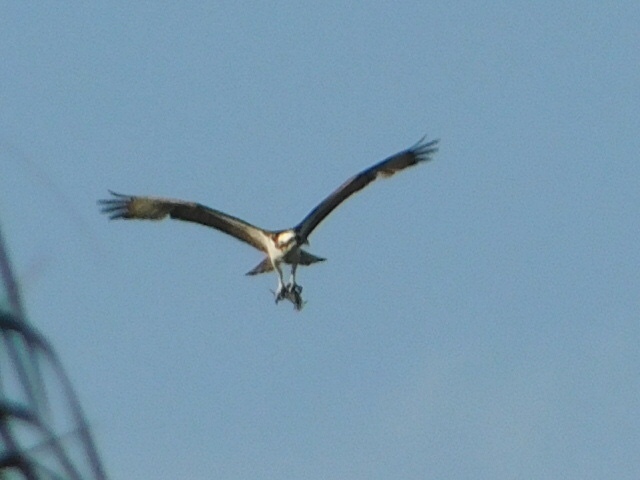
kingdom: Animalia
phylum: Chordata
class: Aves
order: Accipitriformes
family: Pandionidae
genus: Pandion
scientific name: Pandion haliaetus
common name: Osprey
